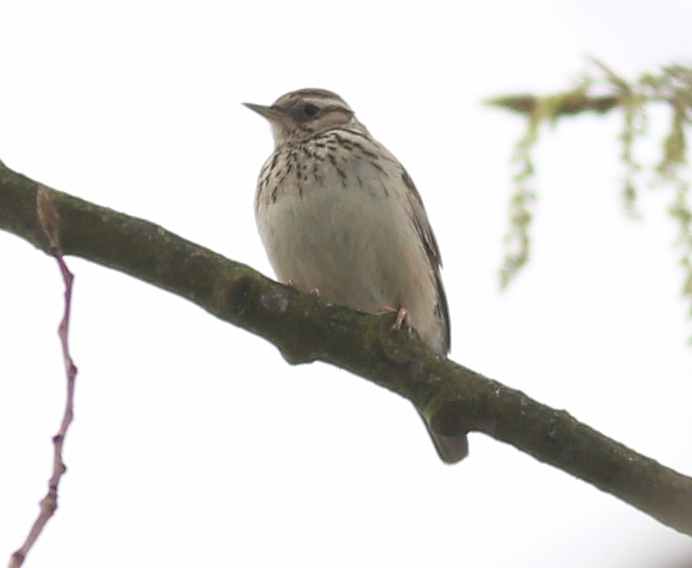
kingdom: Animalia
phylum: Chordata
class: Aves
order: Passeriformes
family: Alaudidae
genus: Lullula
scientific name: Lullula arborea
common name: Woodlark
